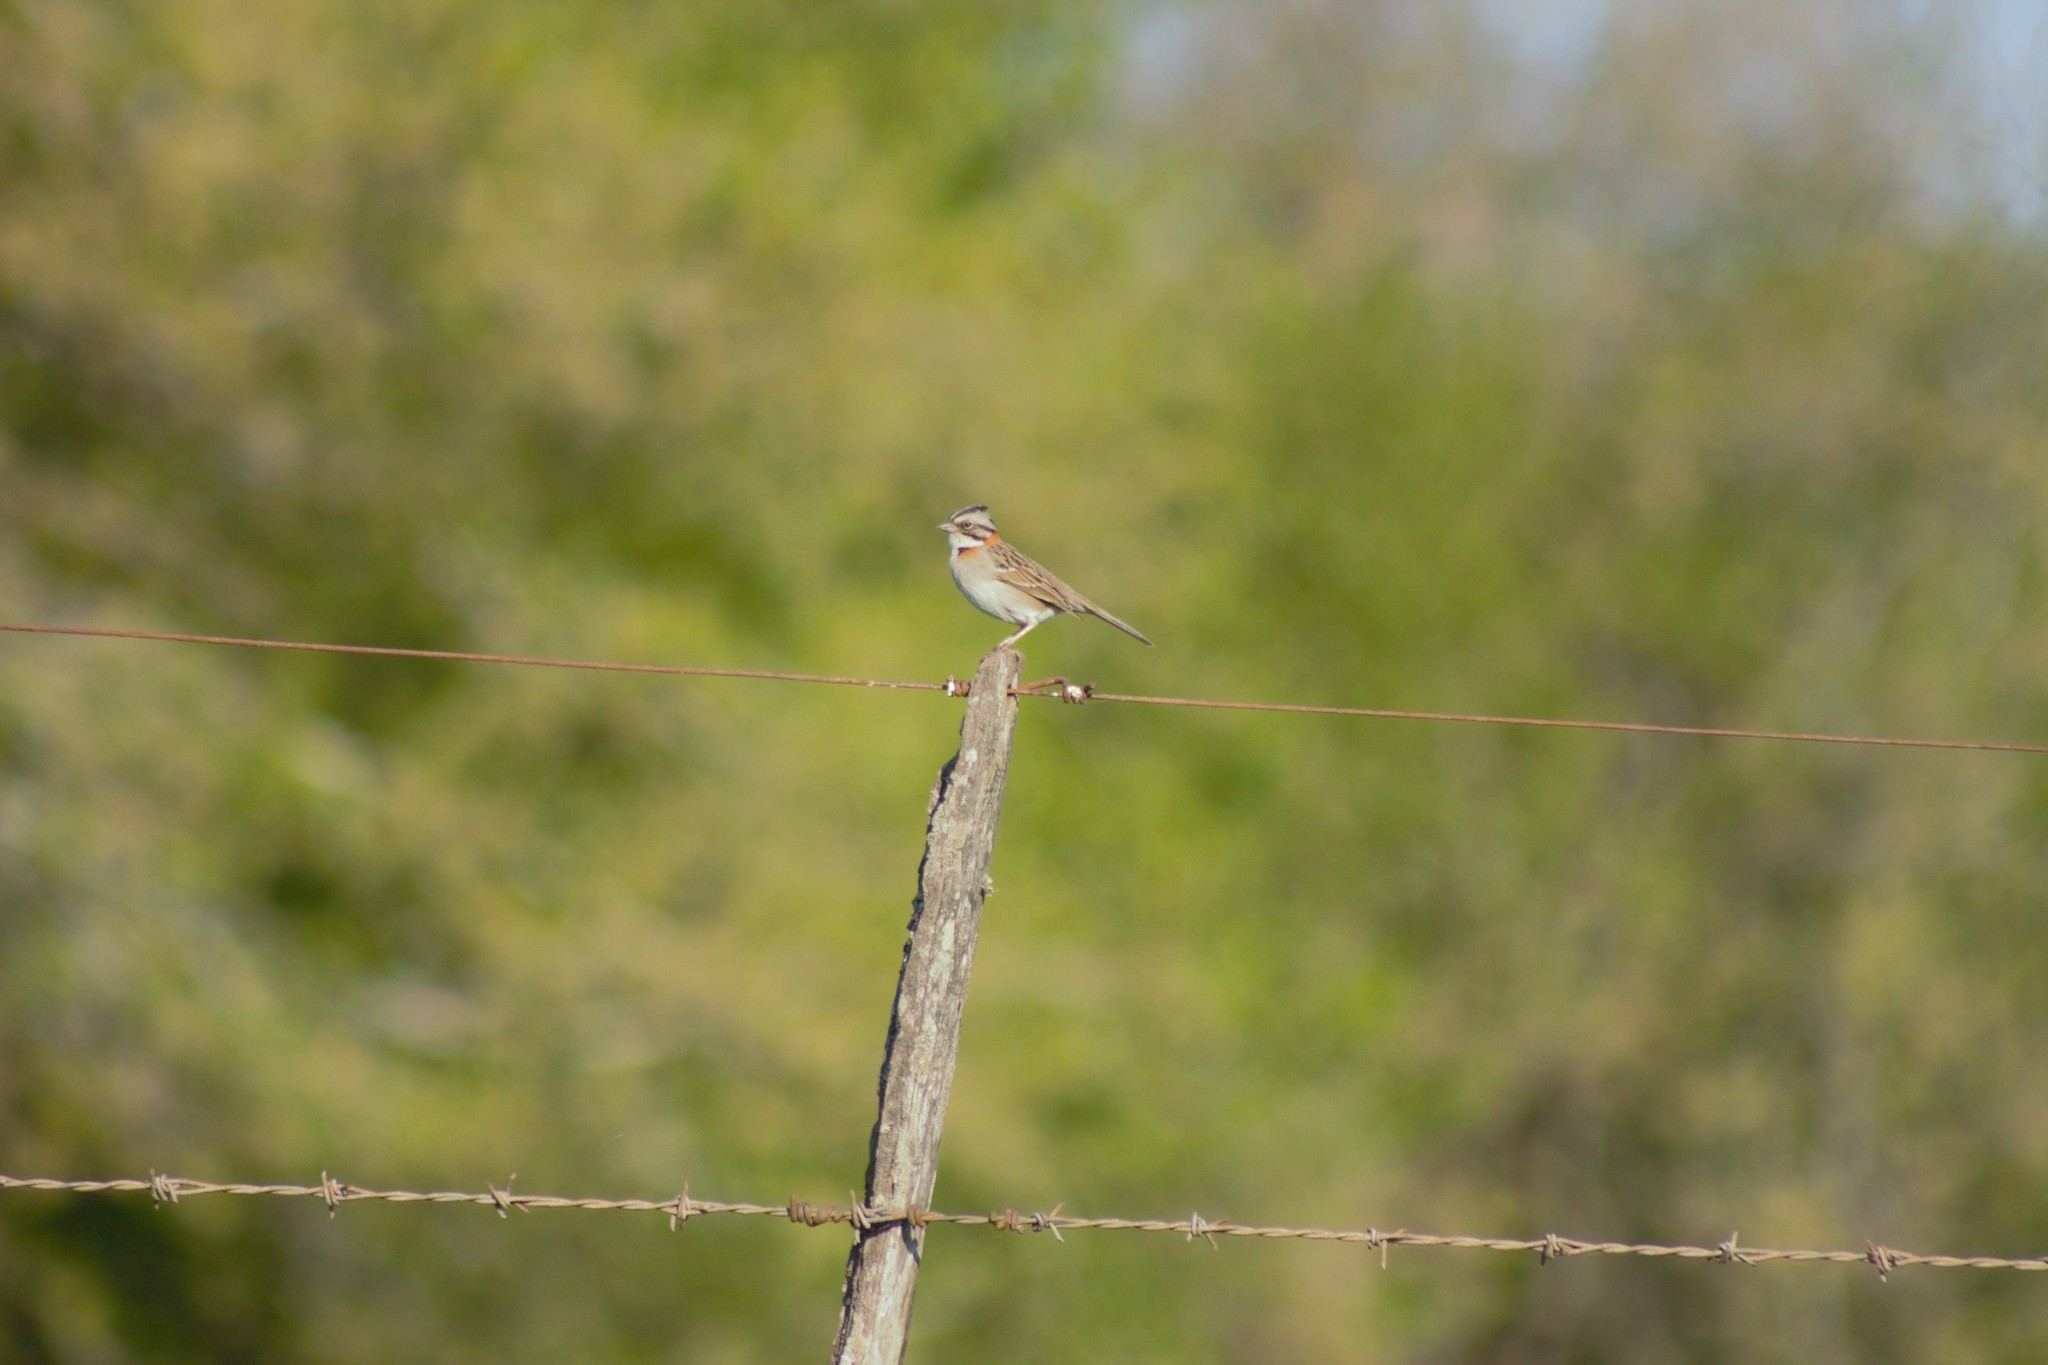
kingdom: Animalia
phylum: Chordata
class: Aves
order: Passeriformes
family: Passerellidae
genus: Zonotrichia
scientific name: Zonotrichia capensis
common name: Rufous-collared sparrow
